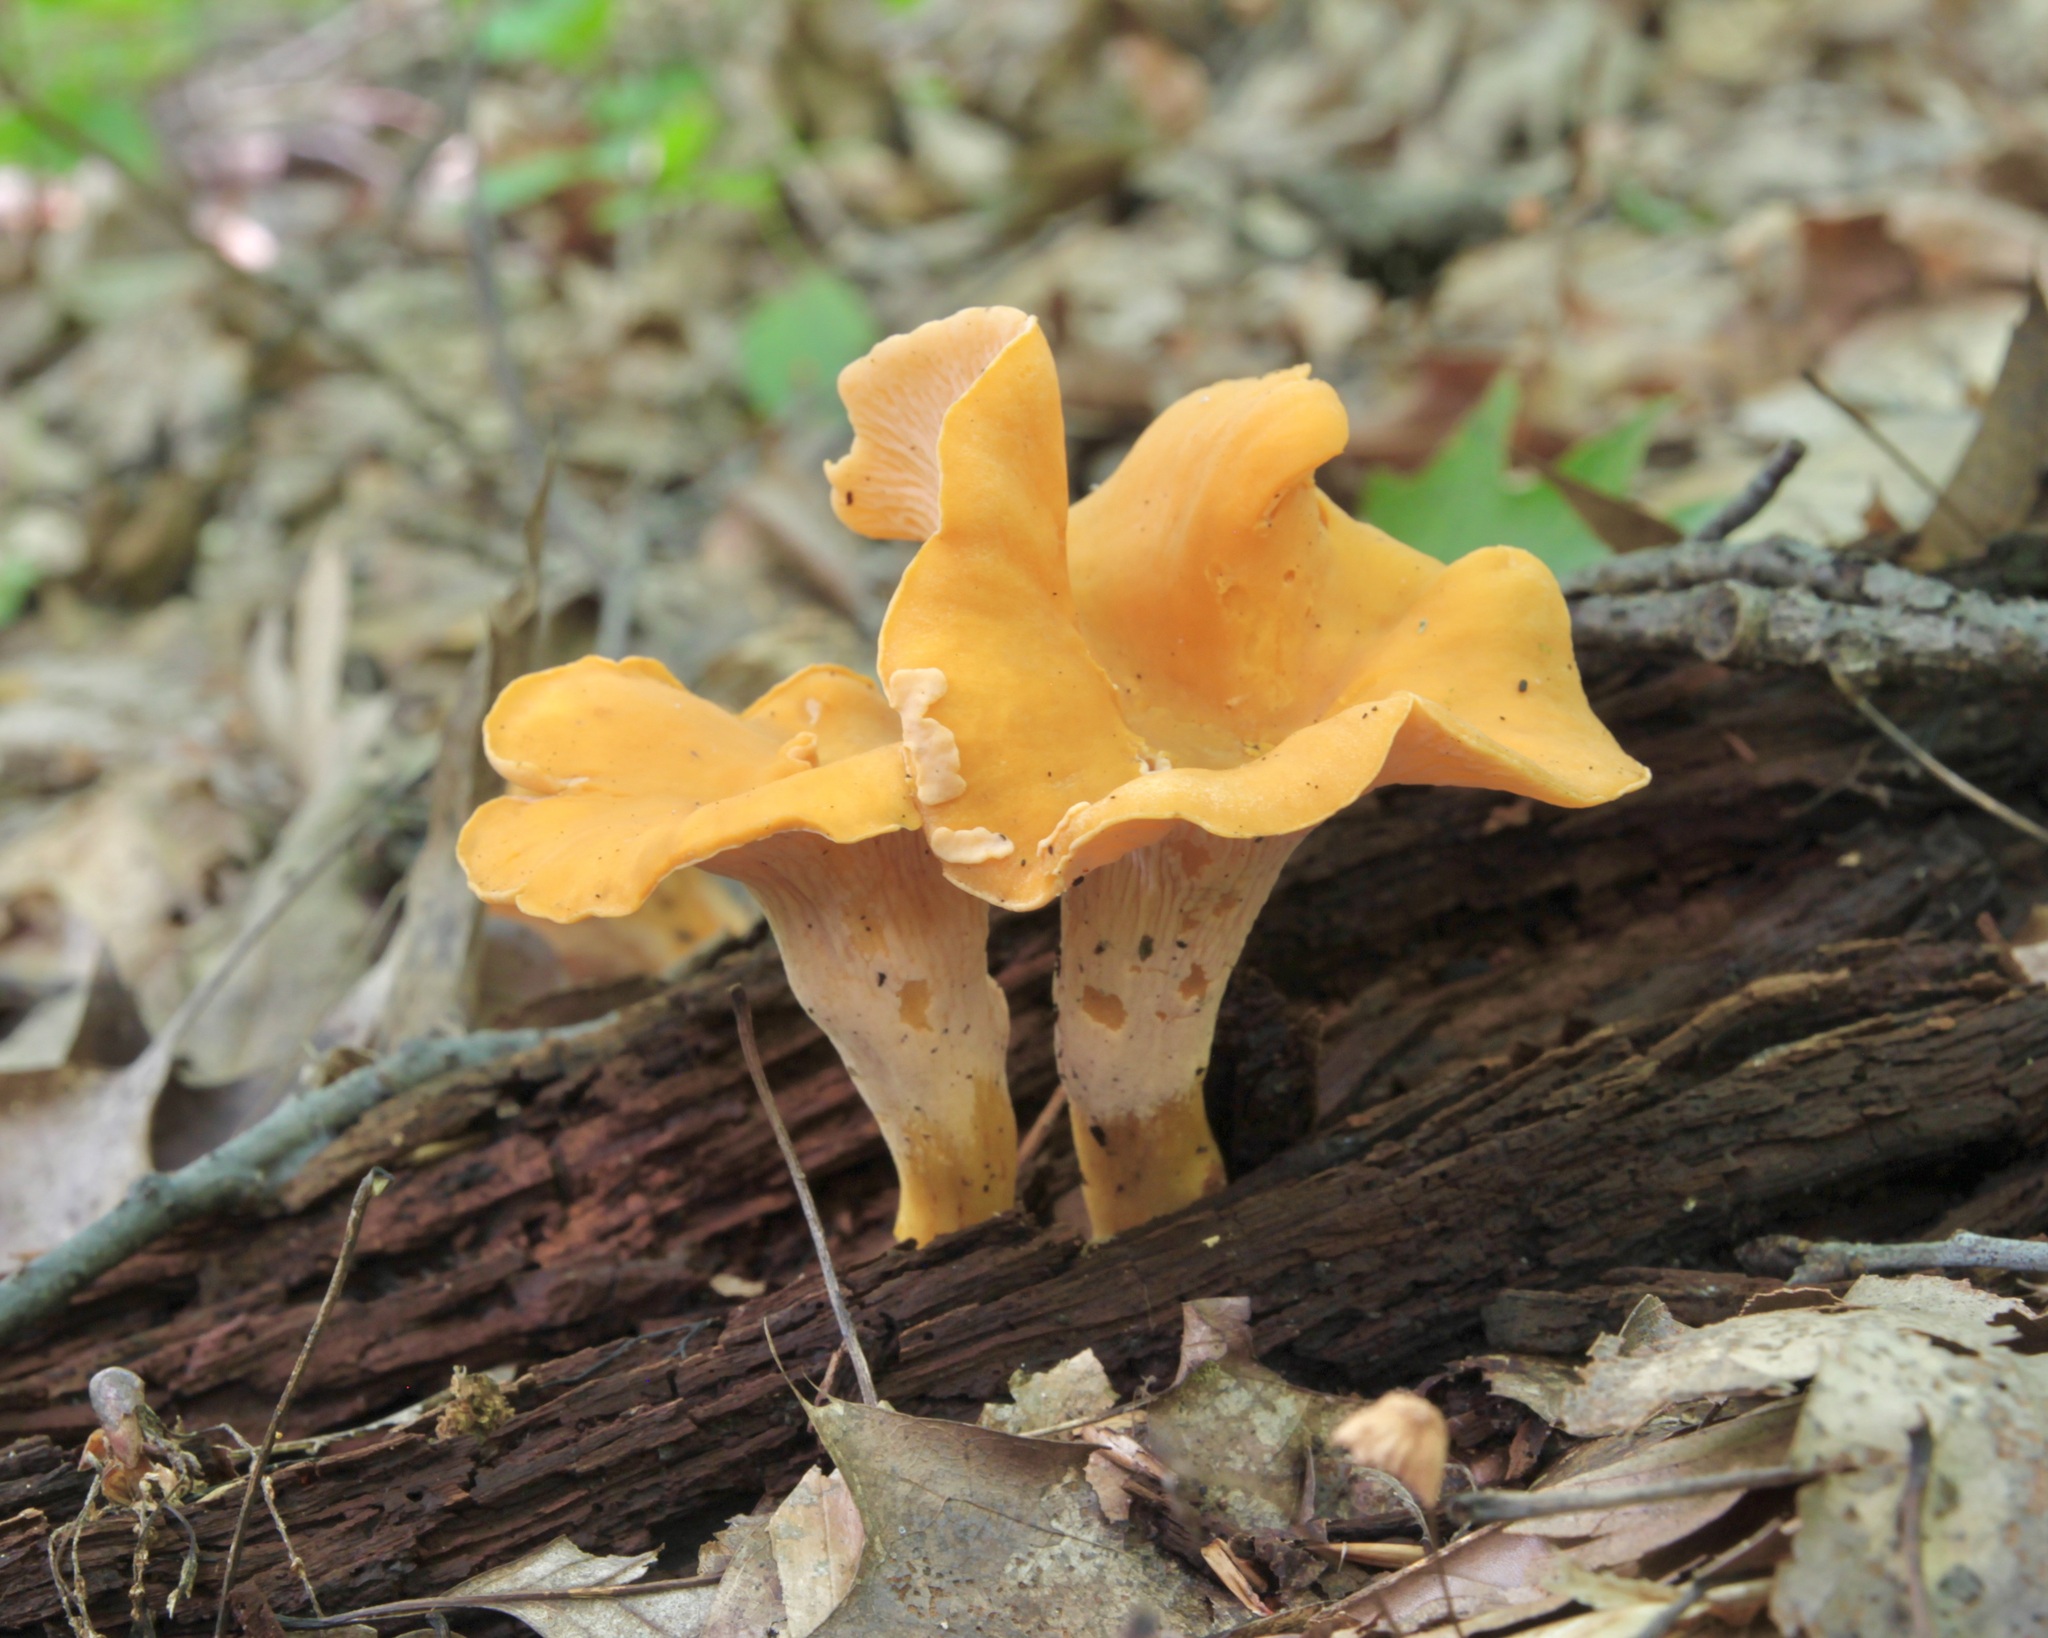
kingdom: Fungi
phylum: Basidiomycota
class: Agaricomycetes
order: Cantharellales
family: Hydnaceae
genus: Cantharellus
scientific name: Cantharellus lateritius
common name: Smooth chanterelle
